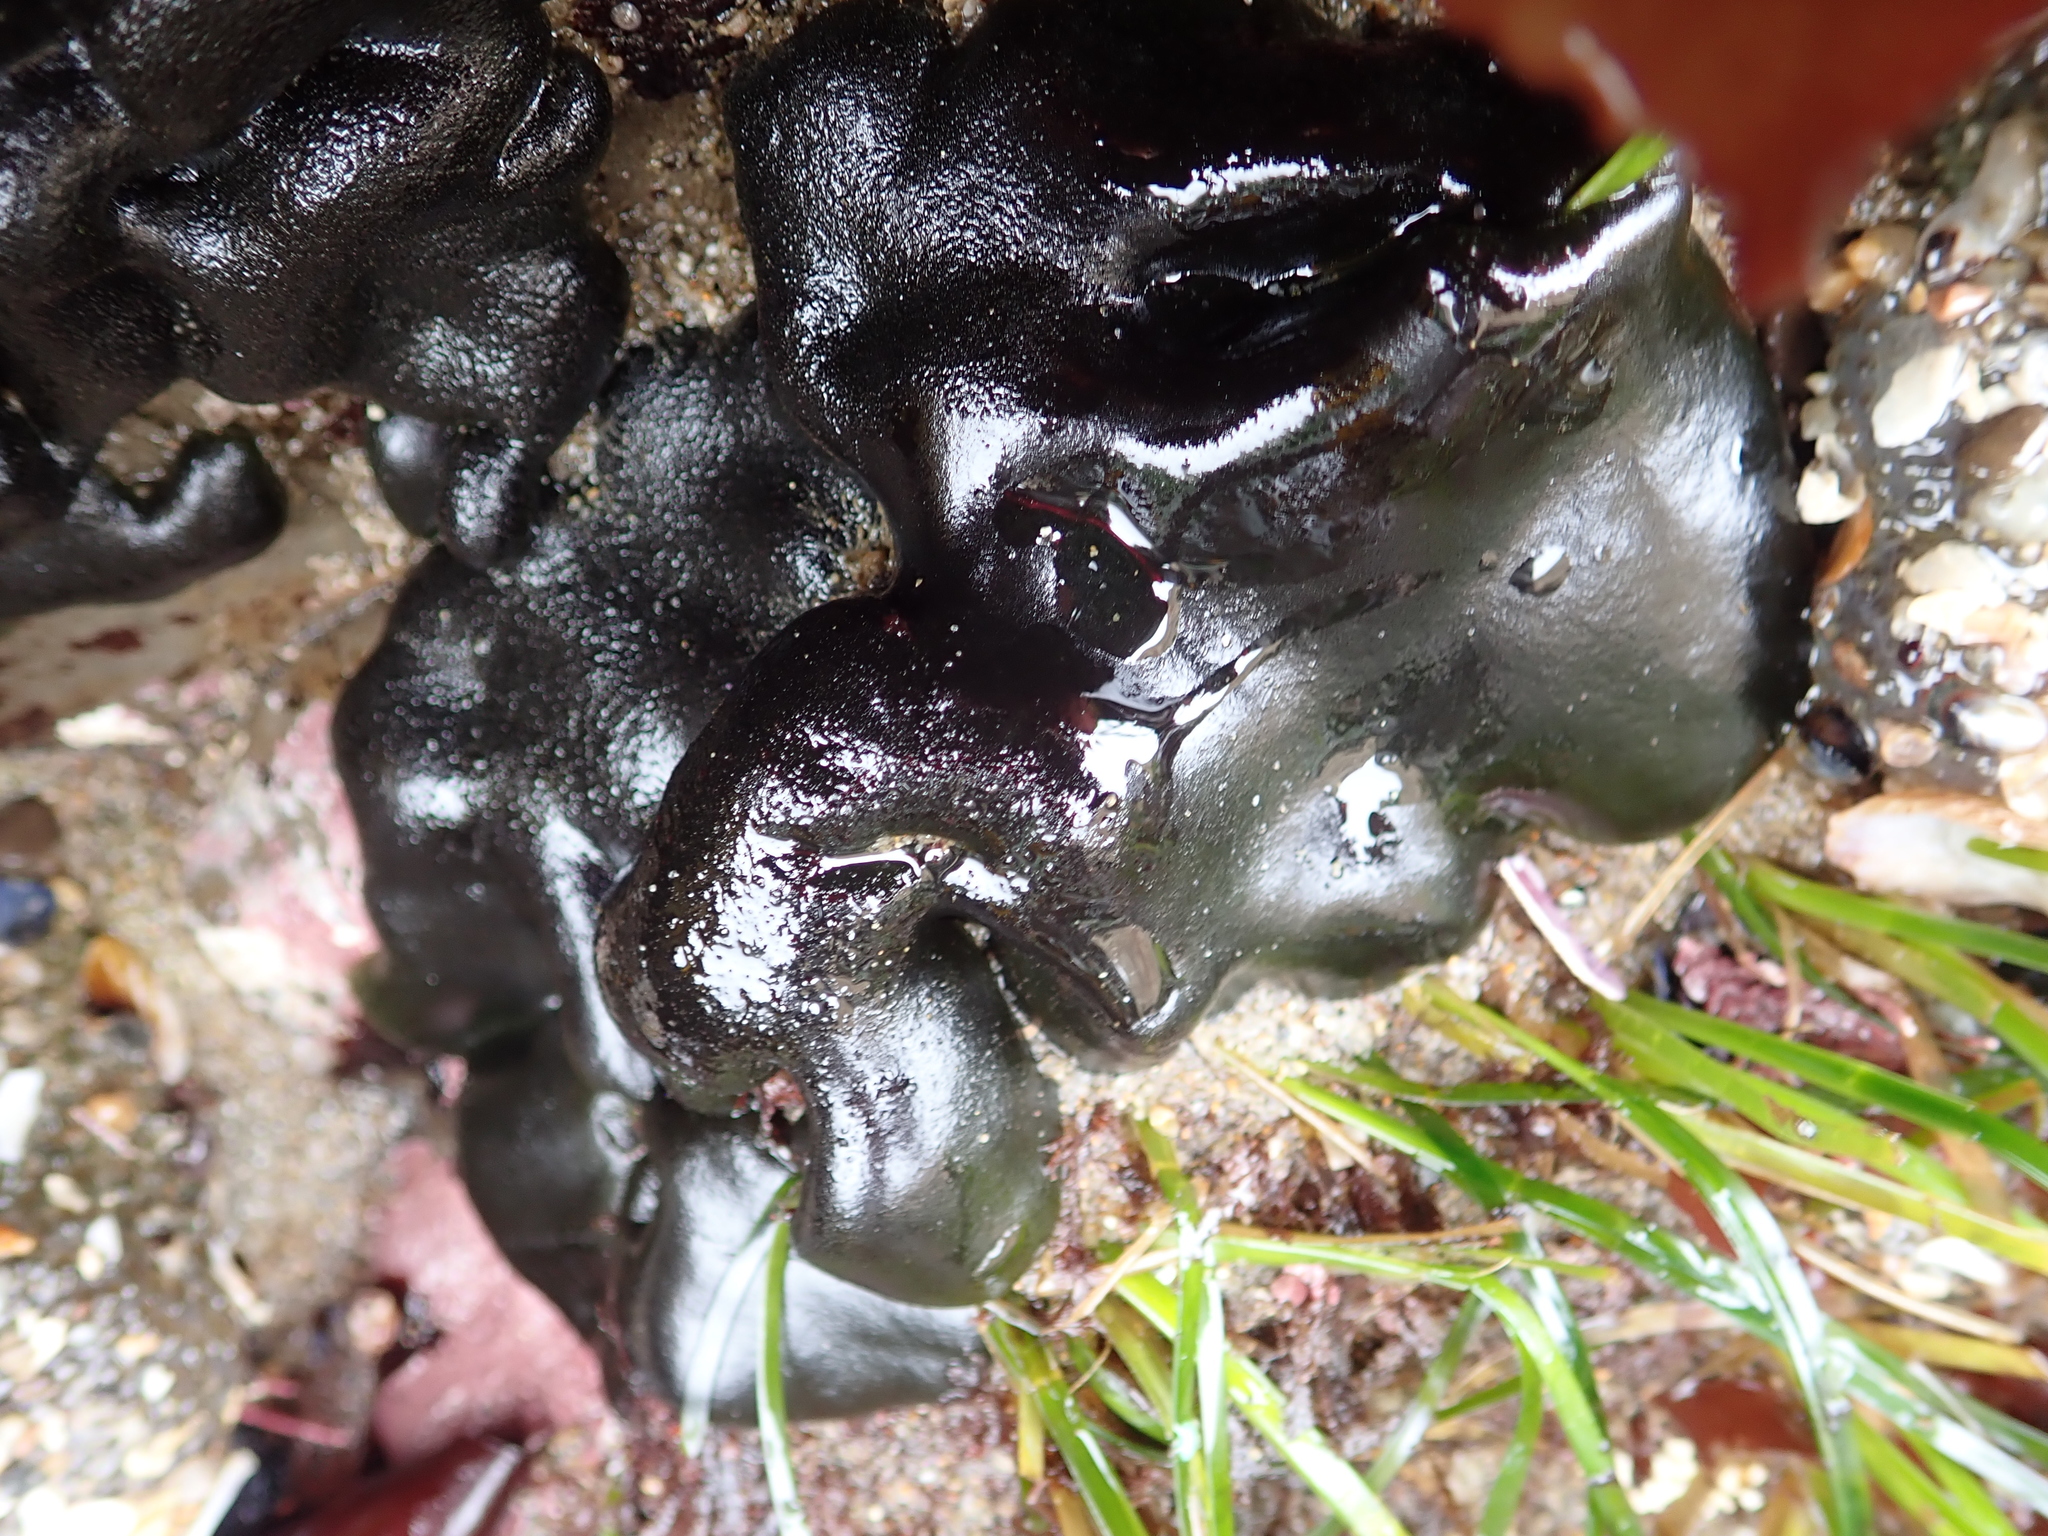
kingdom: Plantae
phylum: Chlorophyta
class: Ulvophyceae
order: Bryopsidales
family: Codiaceae
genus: Codium
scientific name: Codium setchellii
